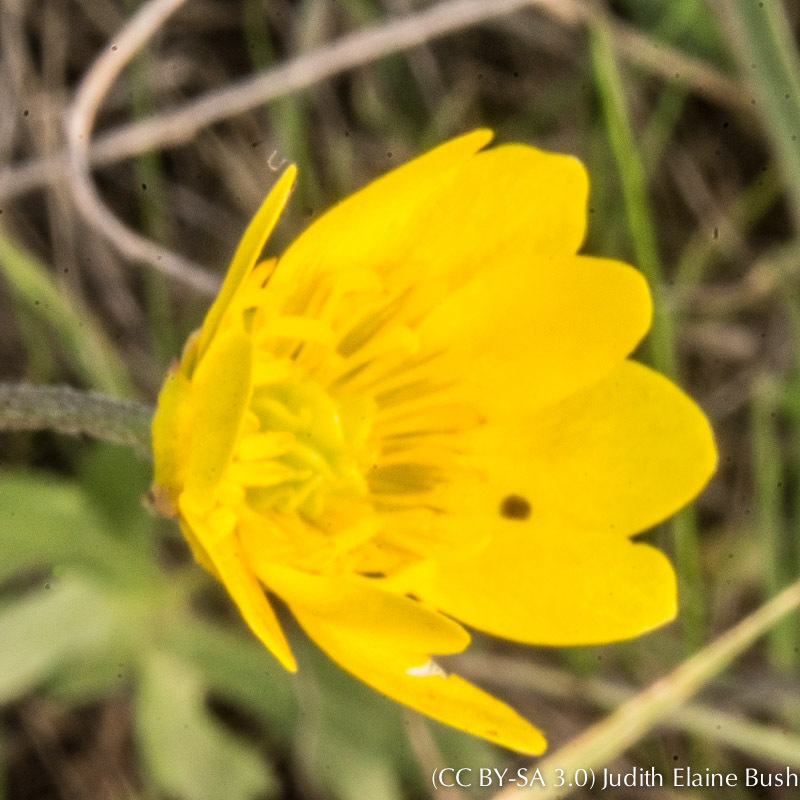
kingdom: Plantae
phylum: Tracheophyta
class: Magnoliopsida
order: Ranunculales
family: Ranunculaceae
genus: Ranunculus
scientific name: Ranunculus californicus
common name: California buttercup
